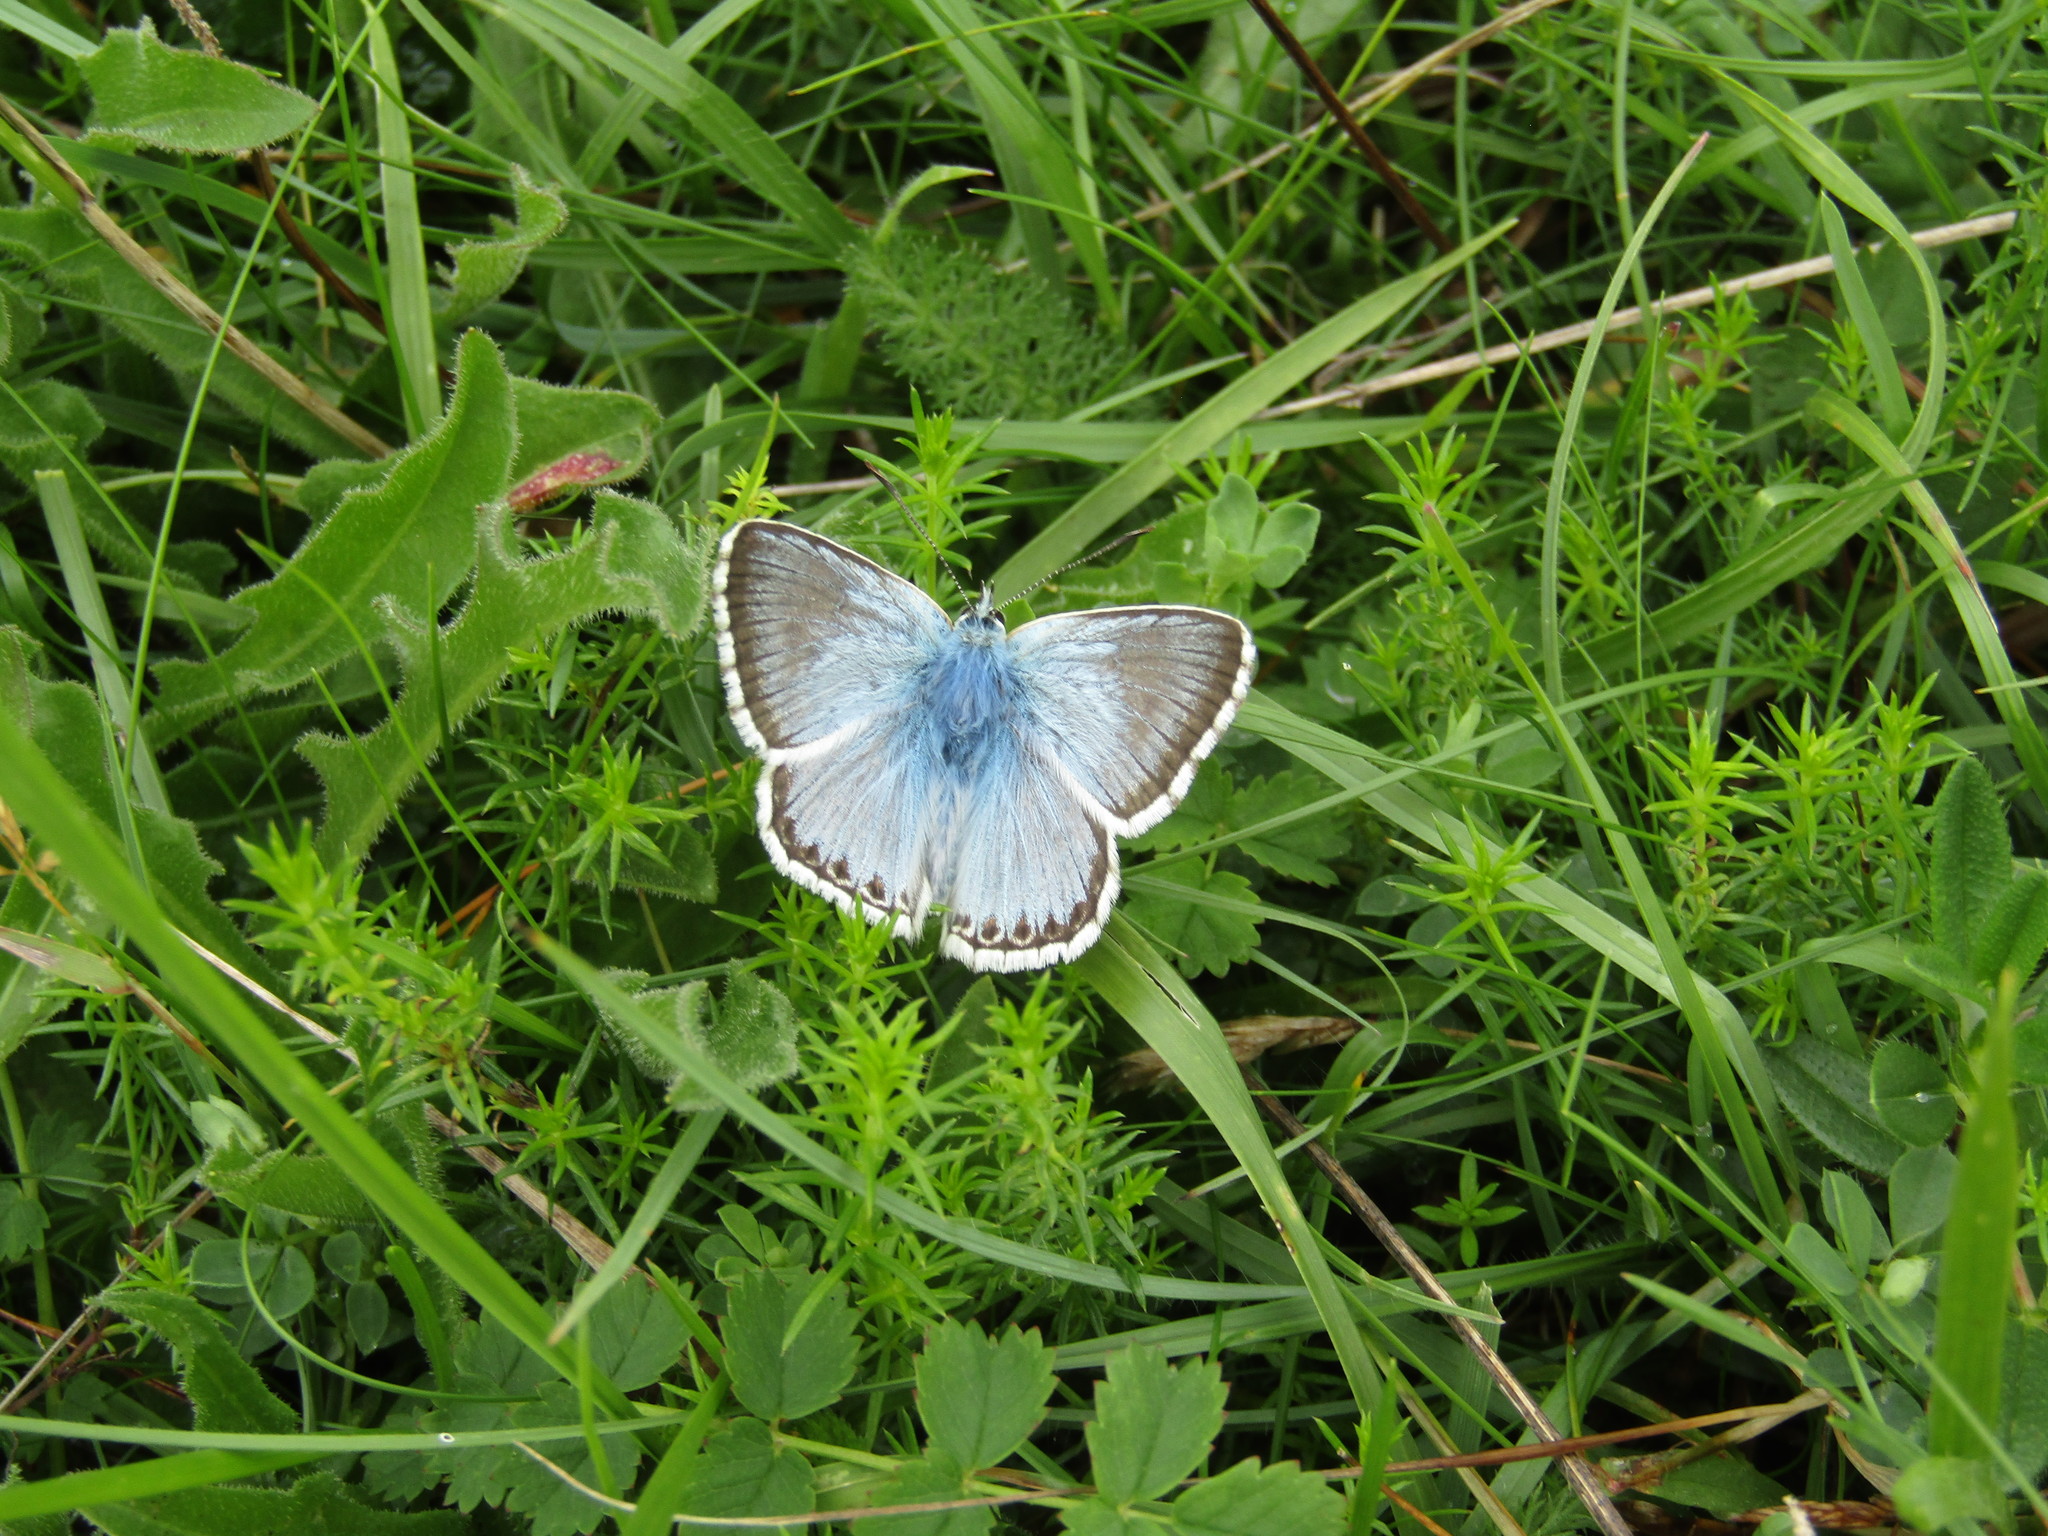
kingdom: Animalia
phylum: Arthropoda
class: Insecta
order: Lepidoptera
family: Lycaenidae
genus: Lysandra
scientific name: Lysandra coridon
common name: Chalkhill blue
